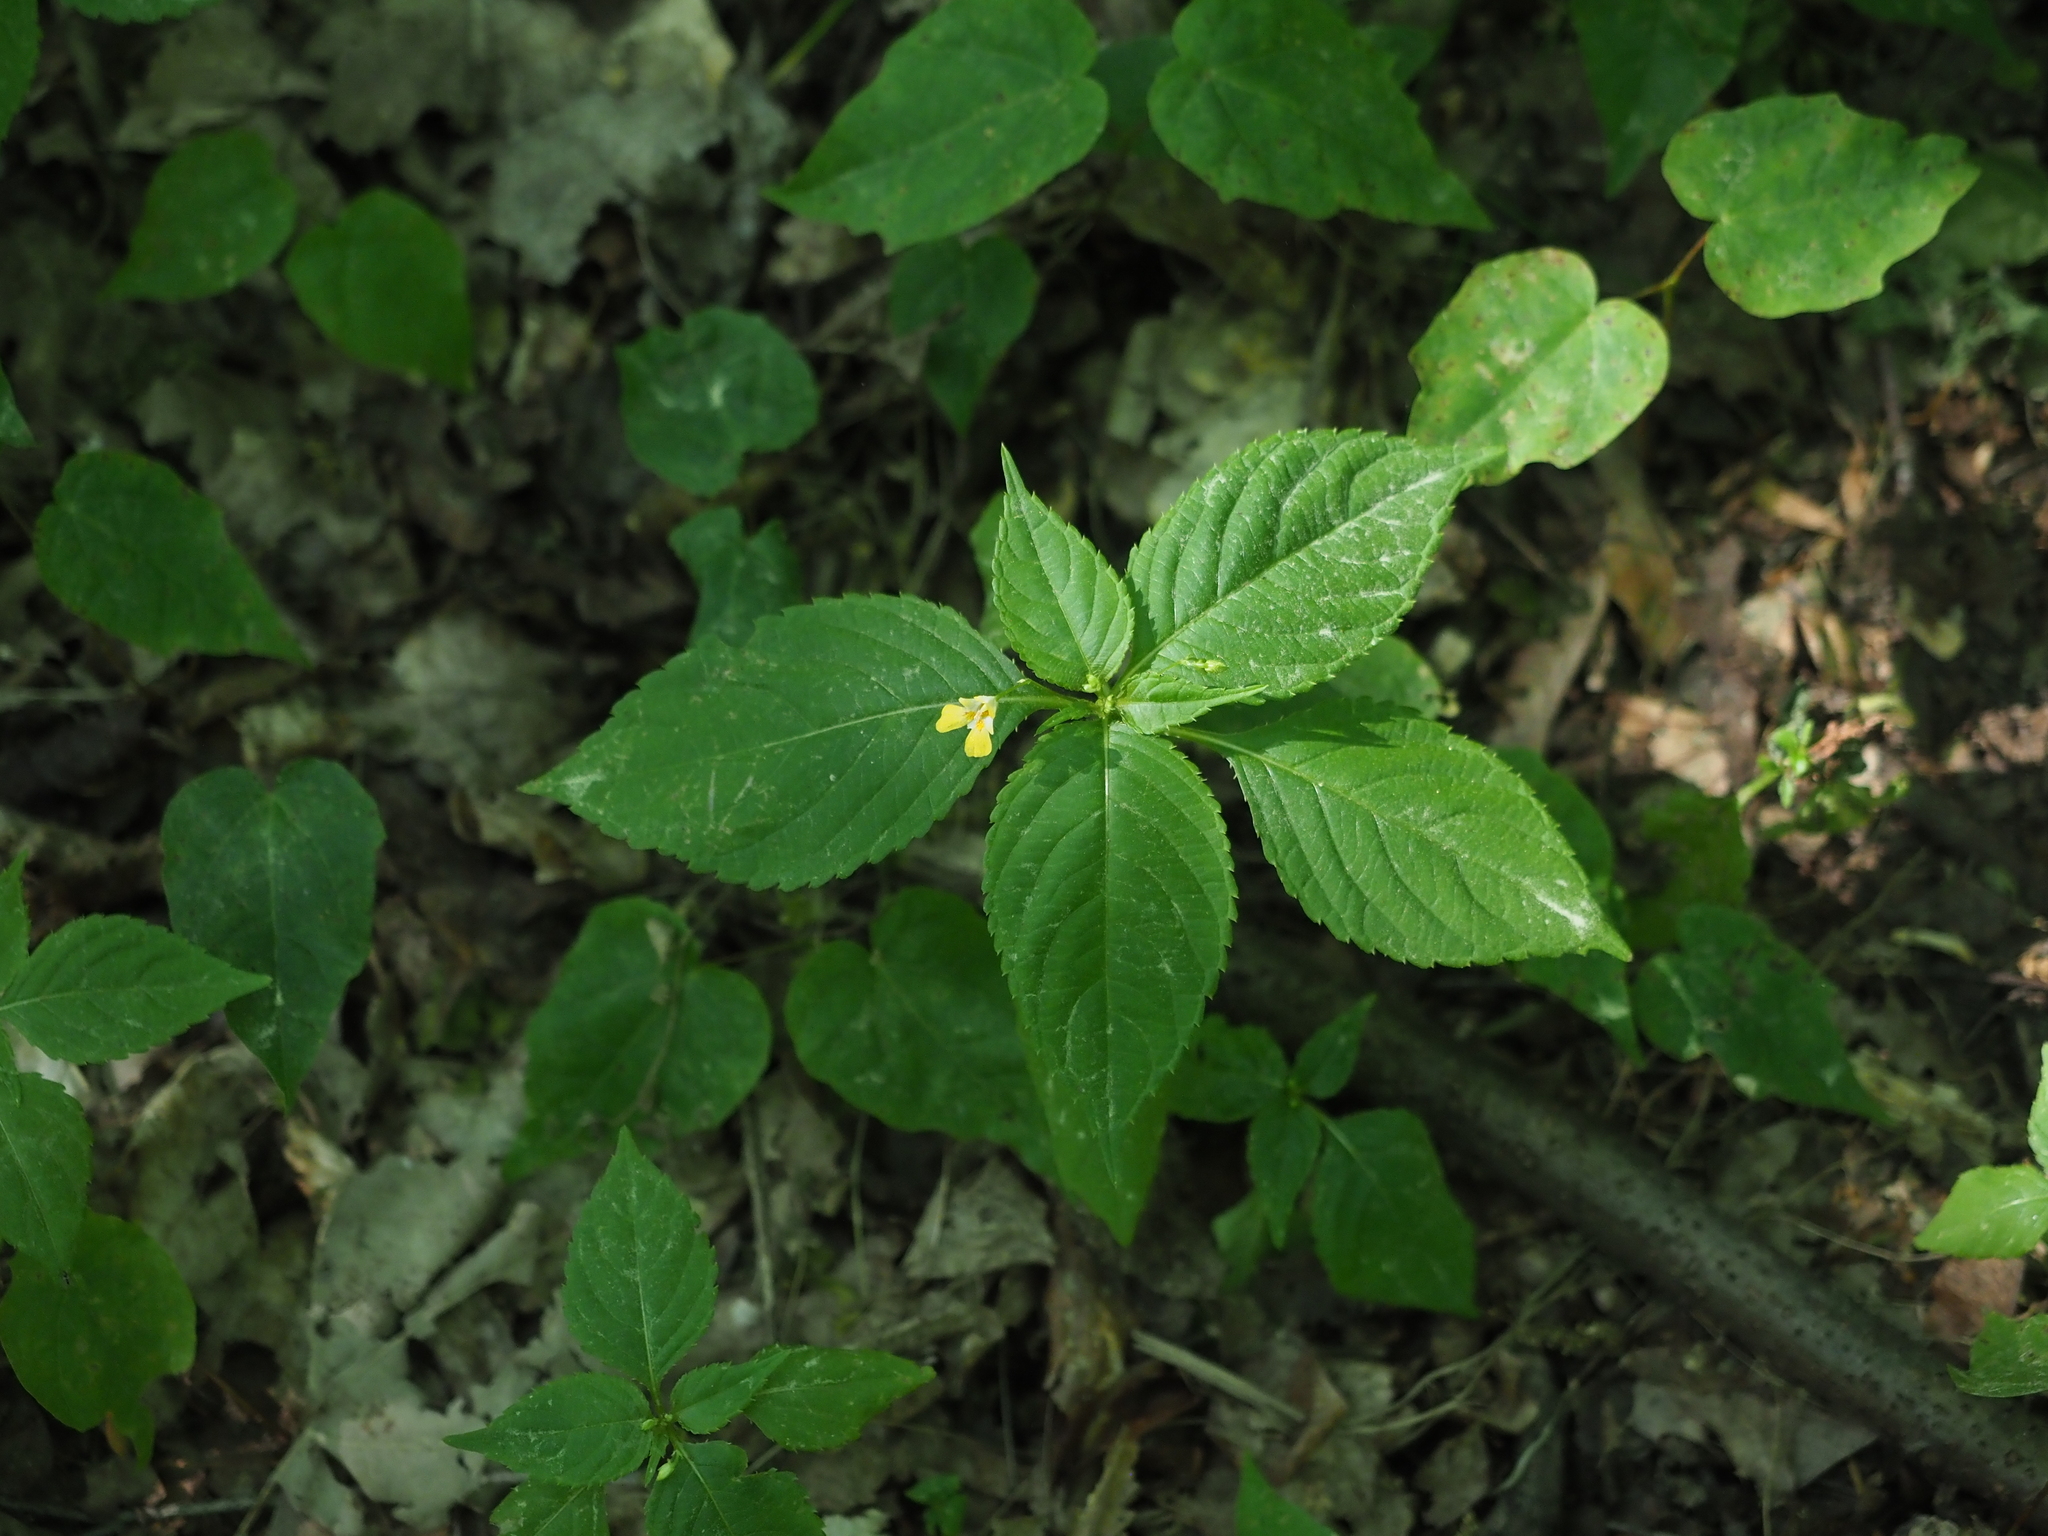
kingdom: Plantae
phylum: Tracheophyta
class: Magnoliopsida
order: Ericales
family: Balsaminaceae
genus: Impatiens
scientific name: Impatiens parviflora
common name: Small balsam
